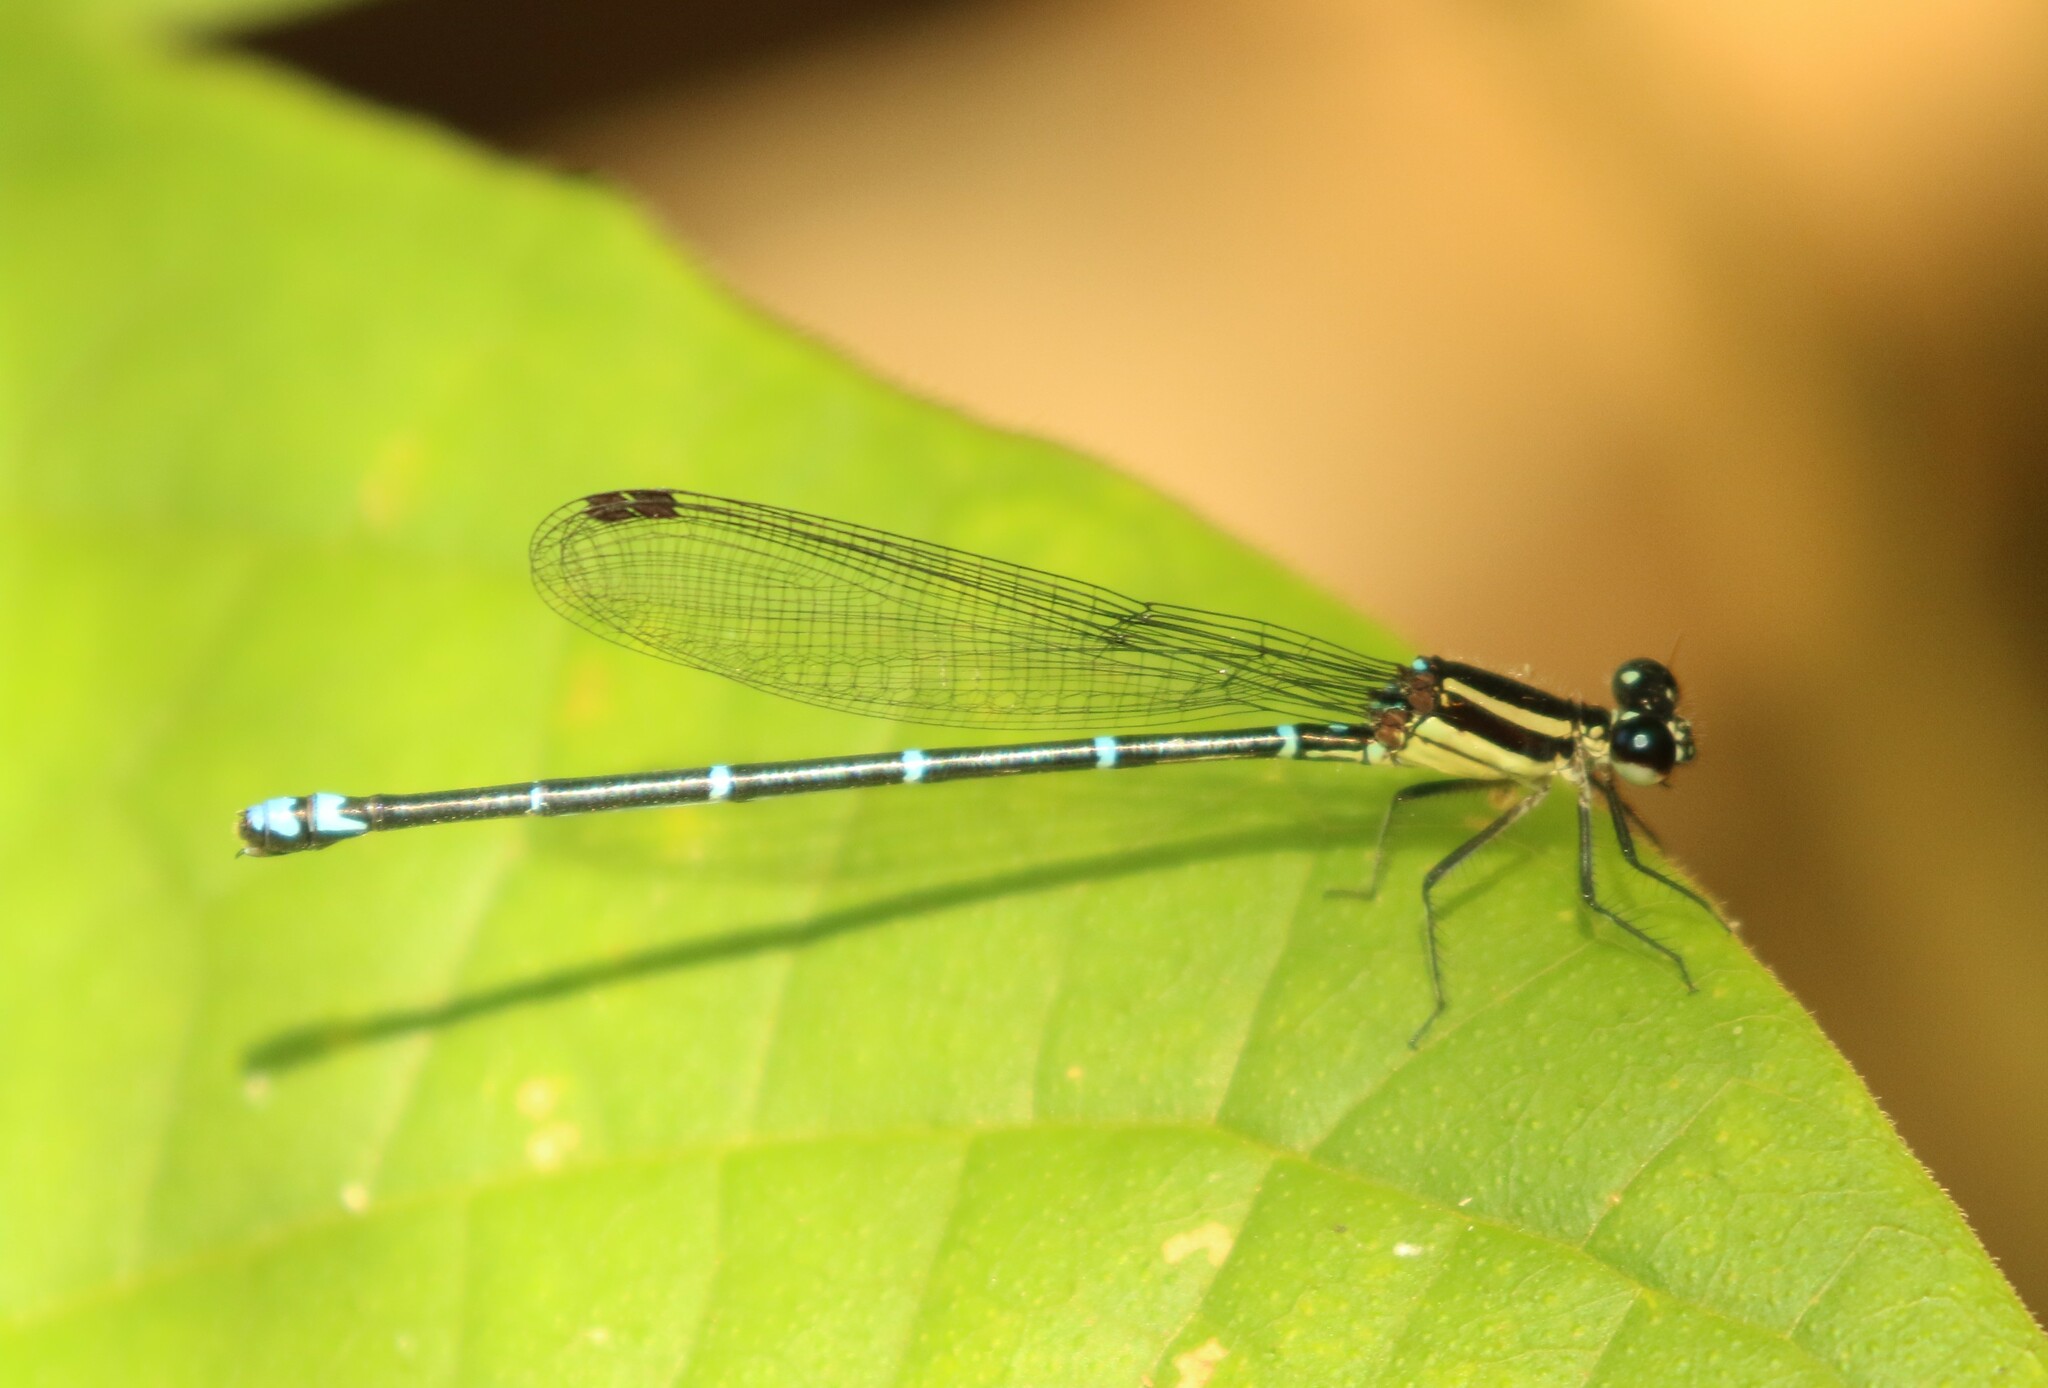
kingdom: Animalia
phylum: Arthropoda
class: Insecta
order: Odonata
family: Coenagrionidae
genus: Argia
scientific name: Argia oculata
